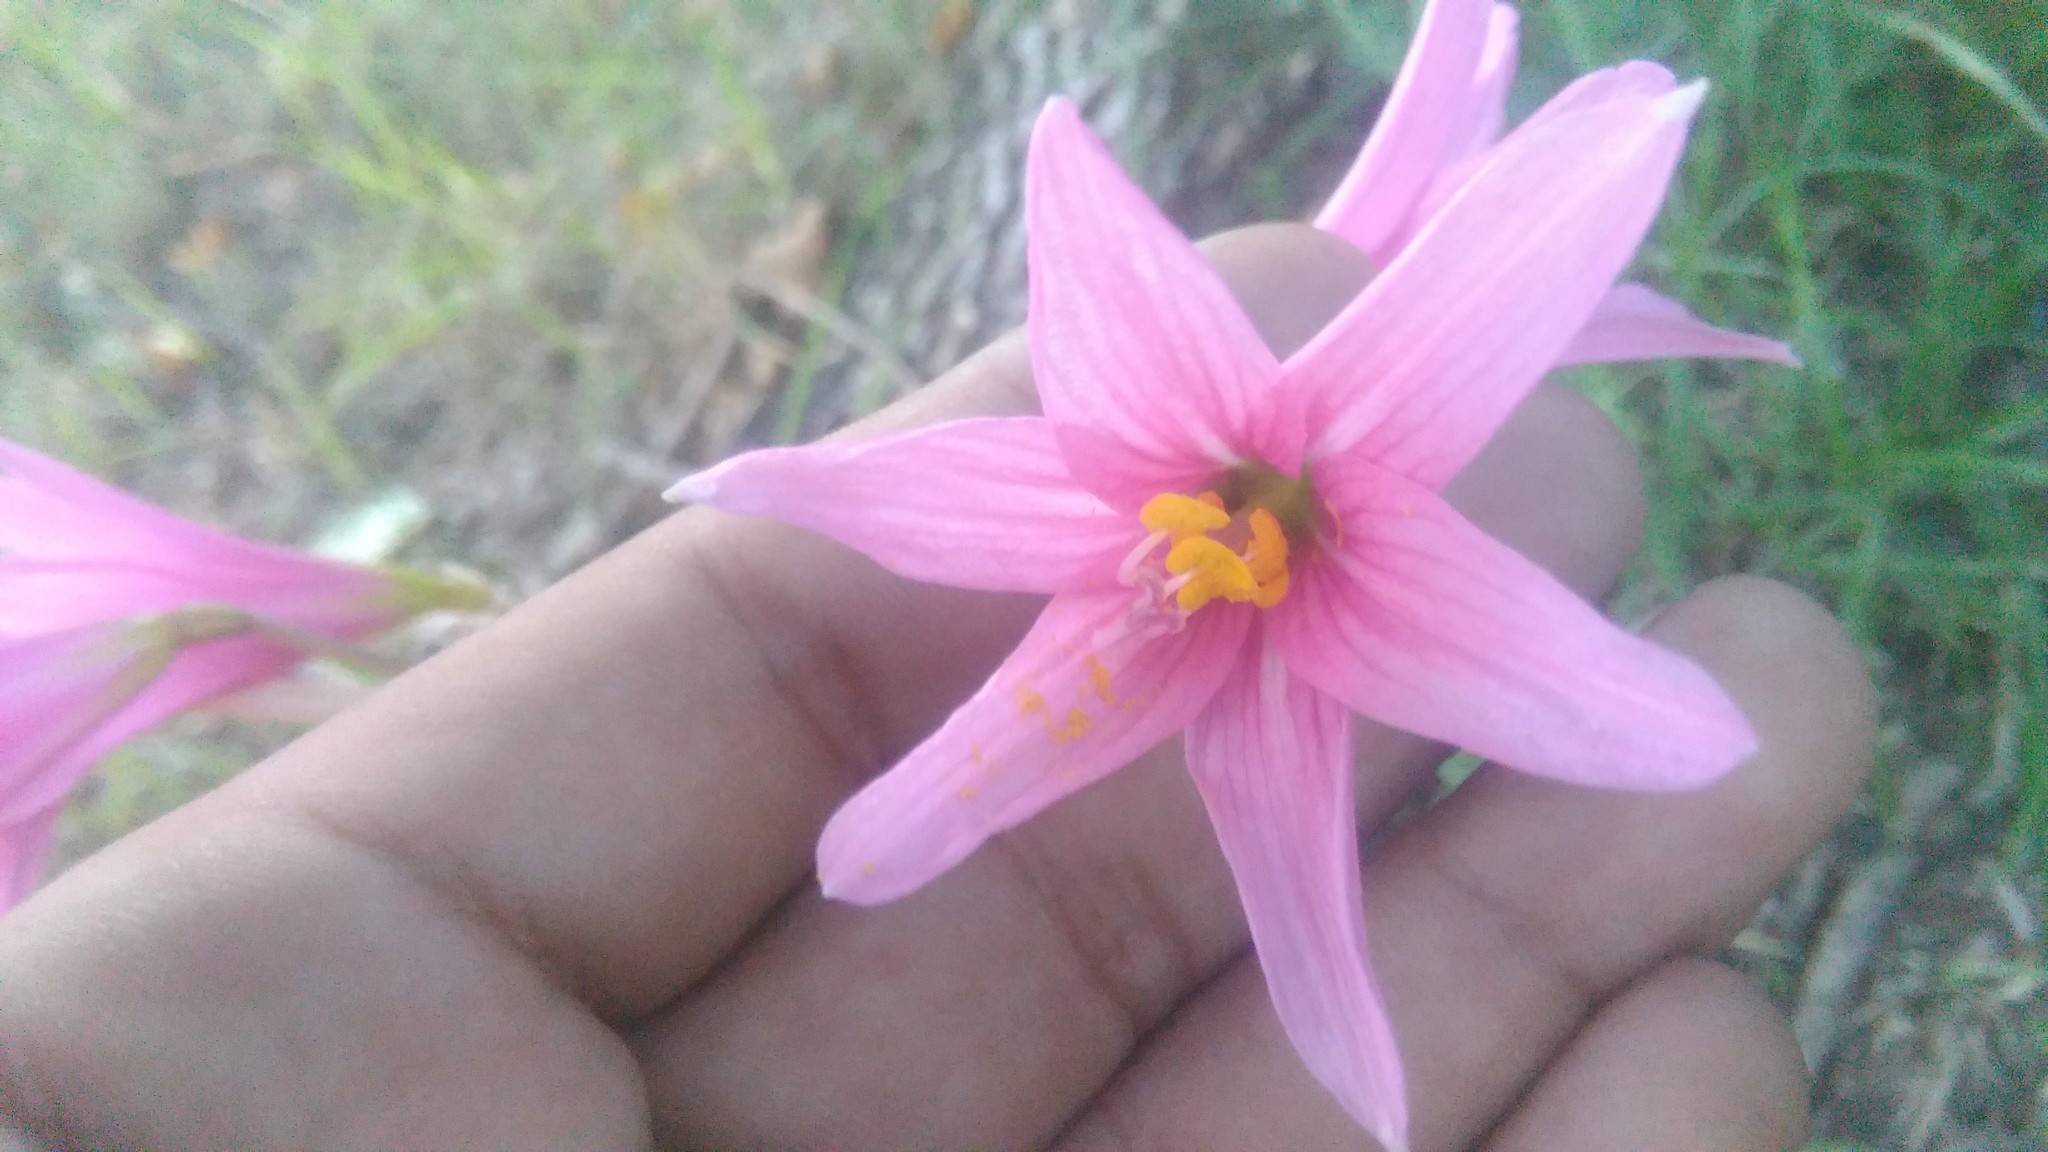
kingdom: Plantae
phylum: Tracheophyta
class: Liliopsida
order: Asparagales
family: Amaryllidaceae
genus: Zephyranthes
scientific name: Zephyranthes bifida
